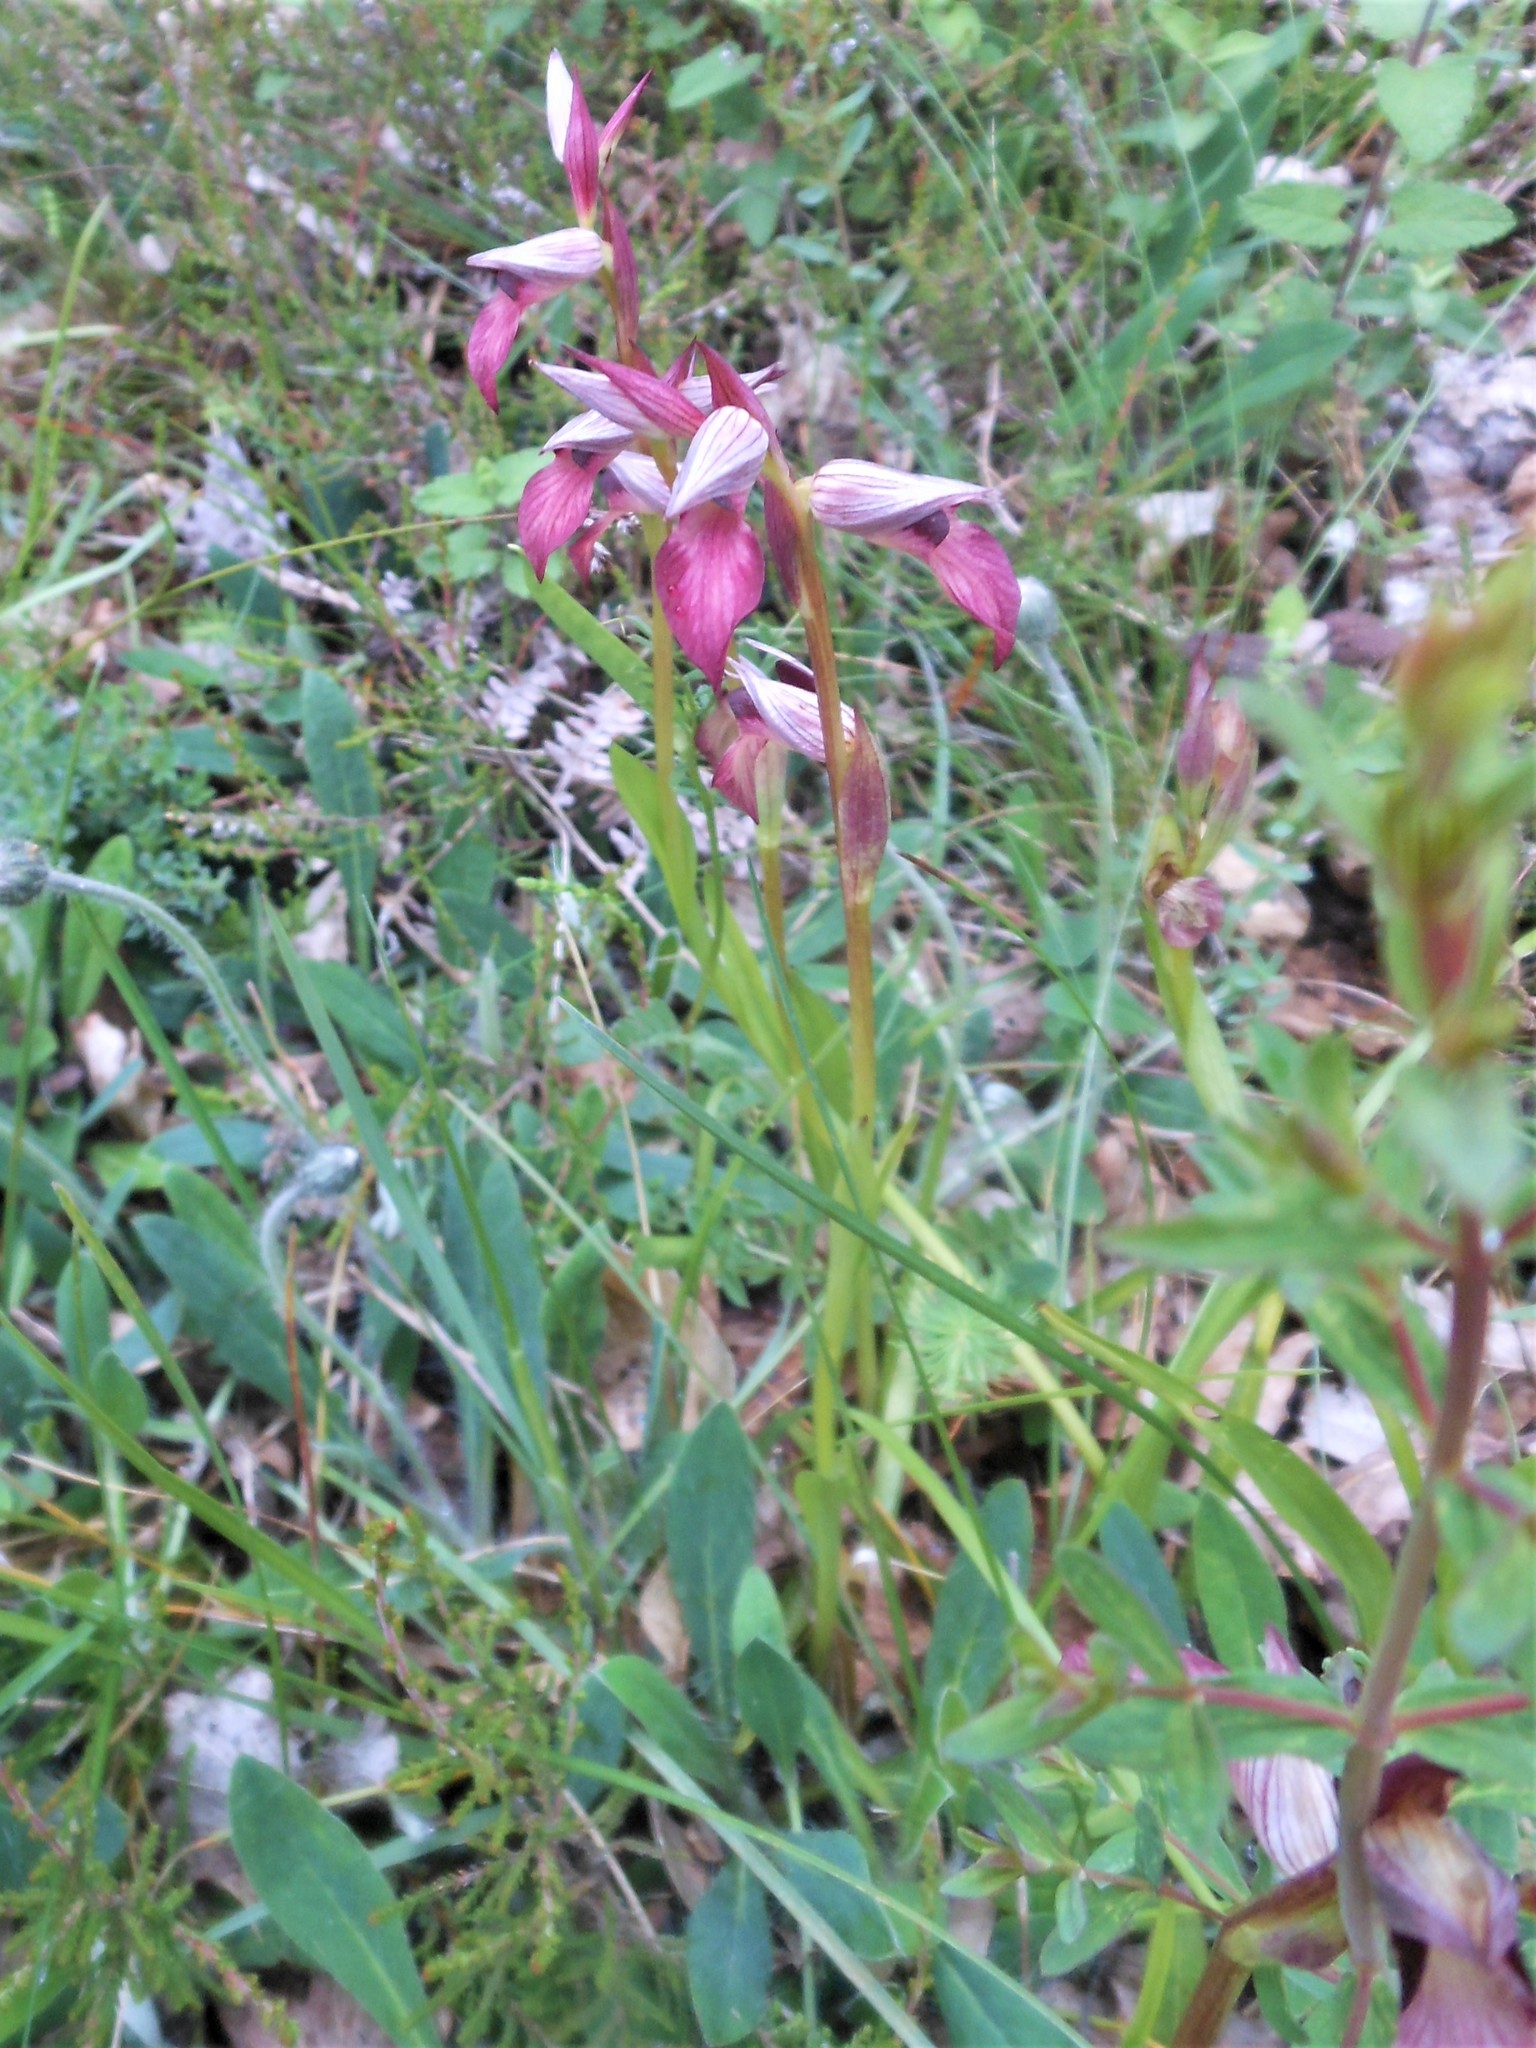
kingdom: Plantae
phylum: Tracheophyta
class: Liliopsida
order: Asparagales
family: Orchidaceae
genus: Serapias
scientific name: Serapias lingua
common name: Tongue-orchid
